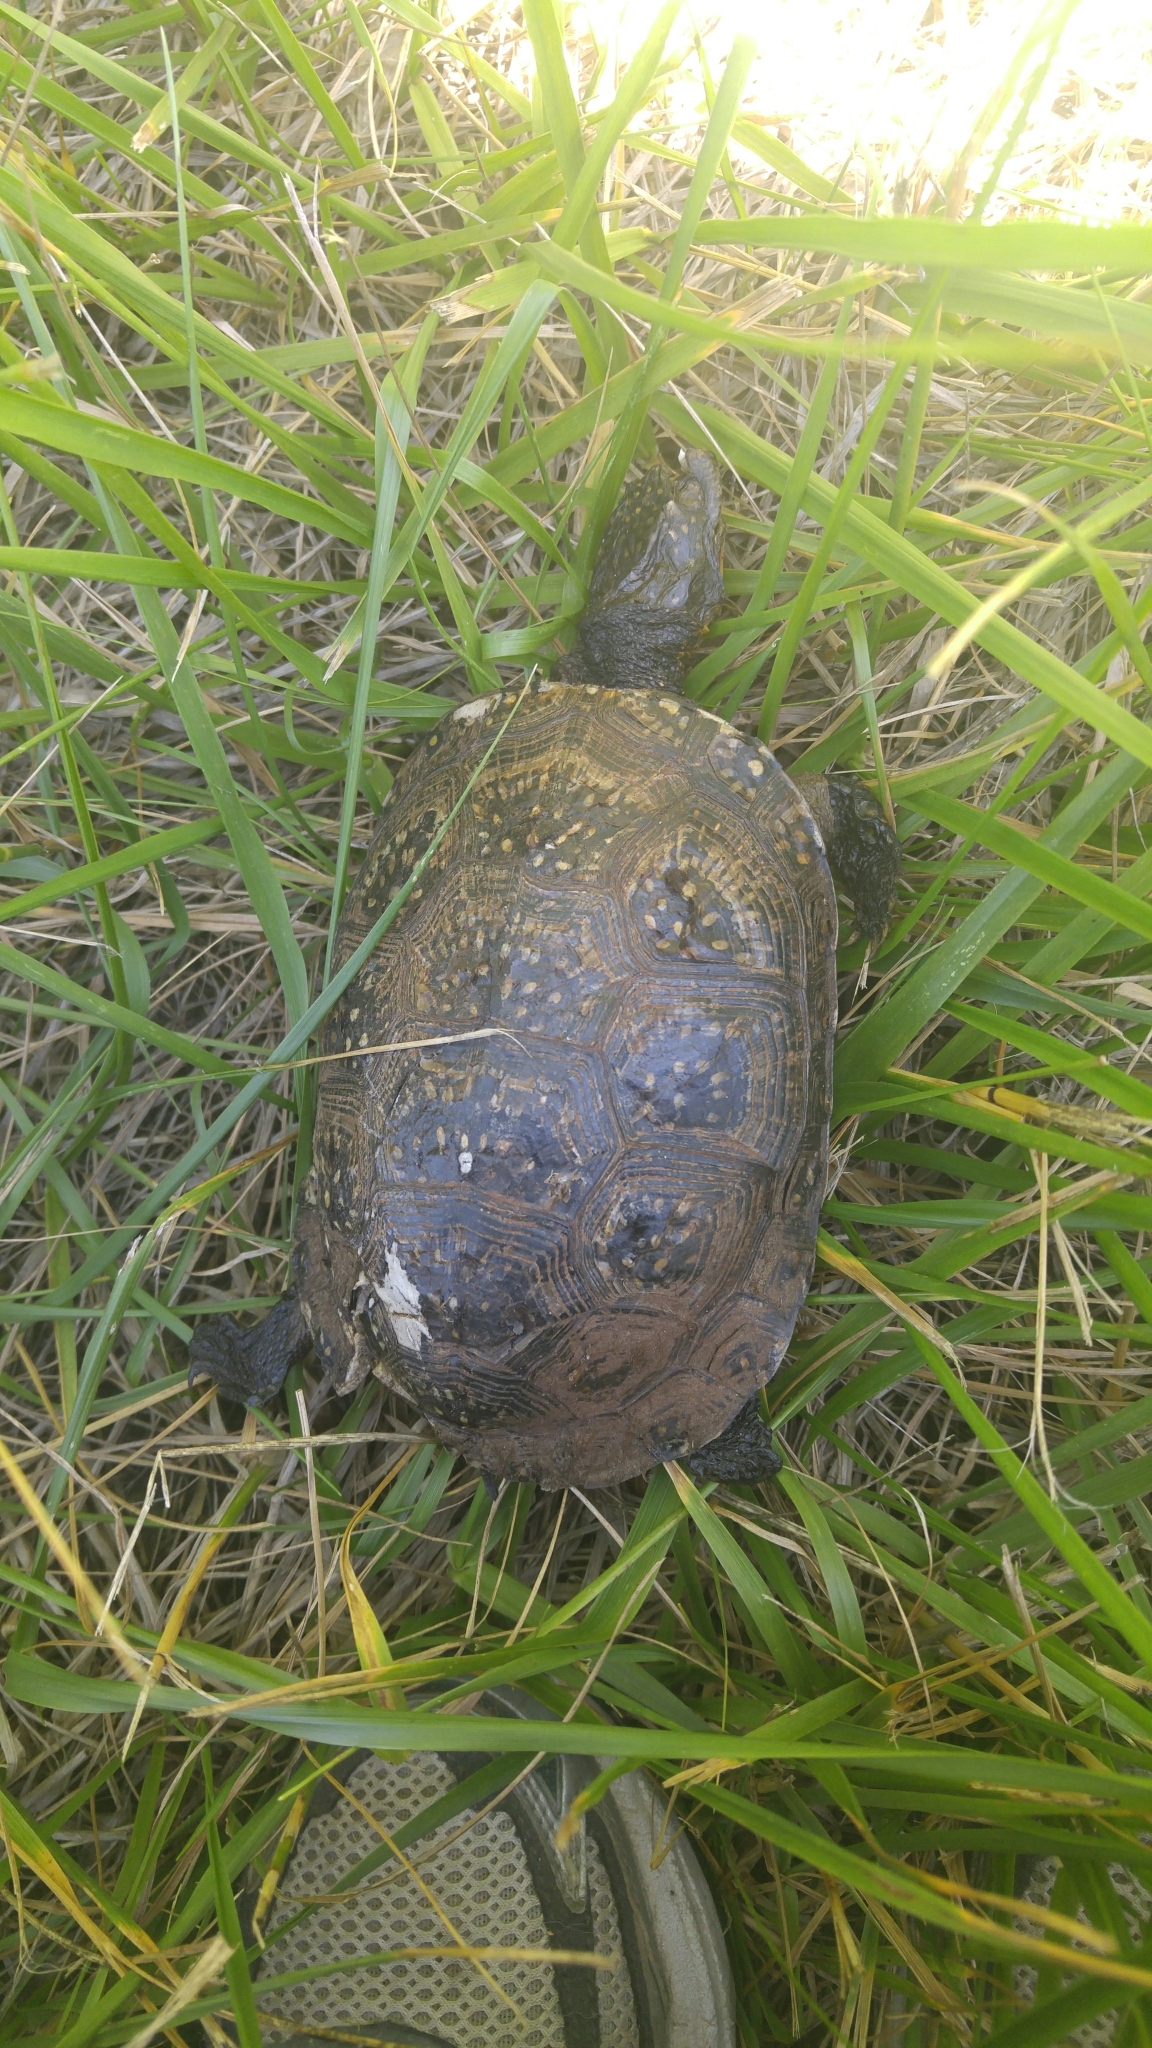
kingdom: Animalia
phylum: Chordata
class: Testudines
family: Emydidae
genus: Emys
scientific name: Emys blandingii
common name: Blanding's turtle
